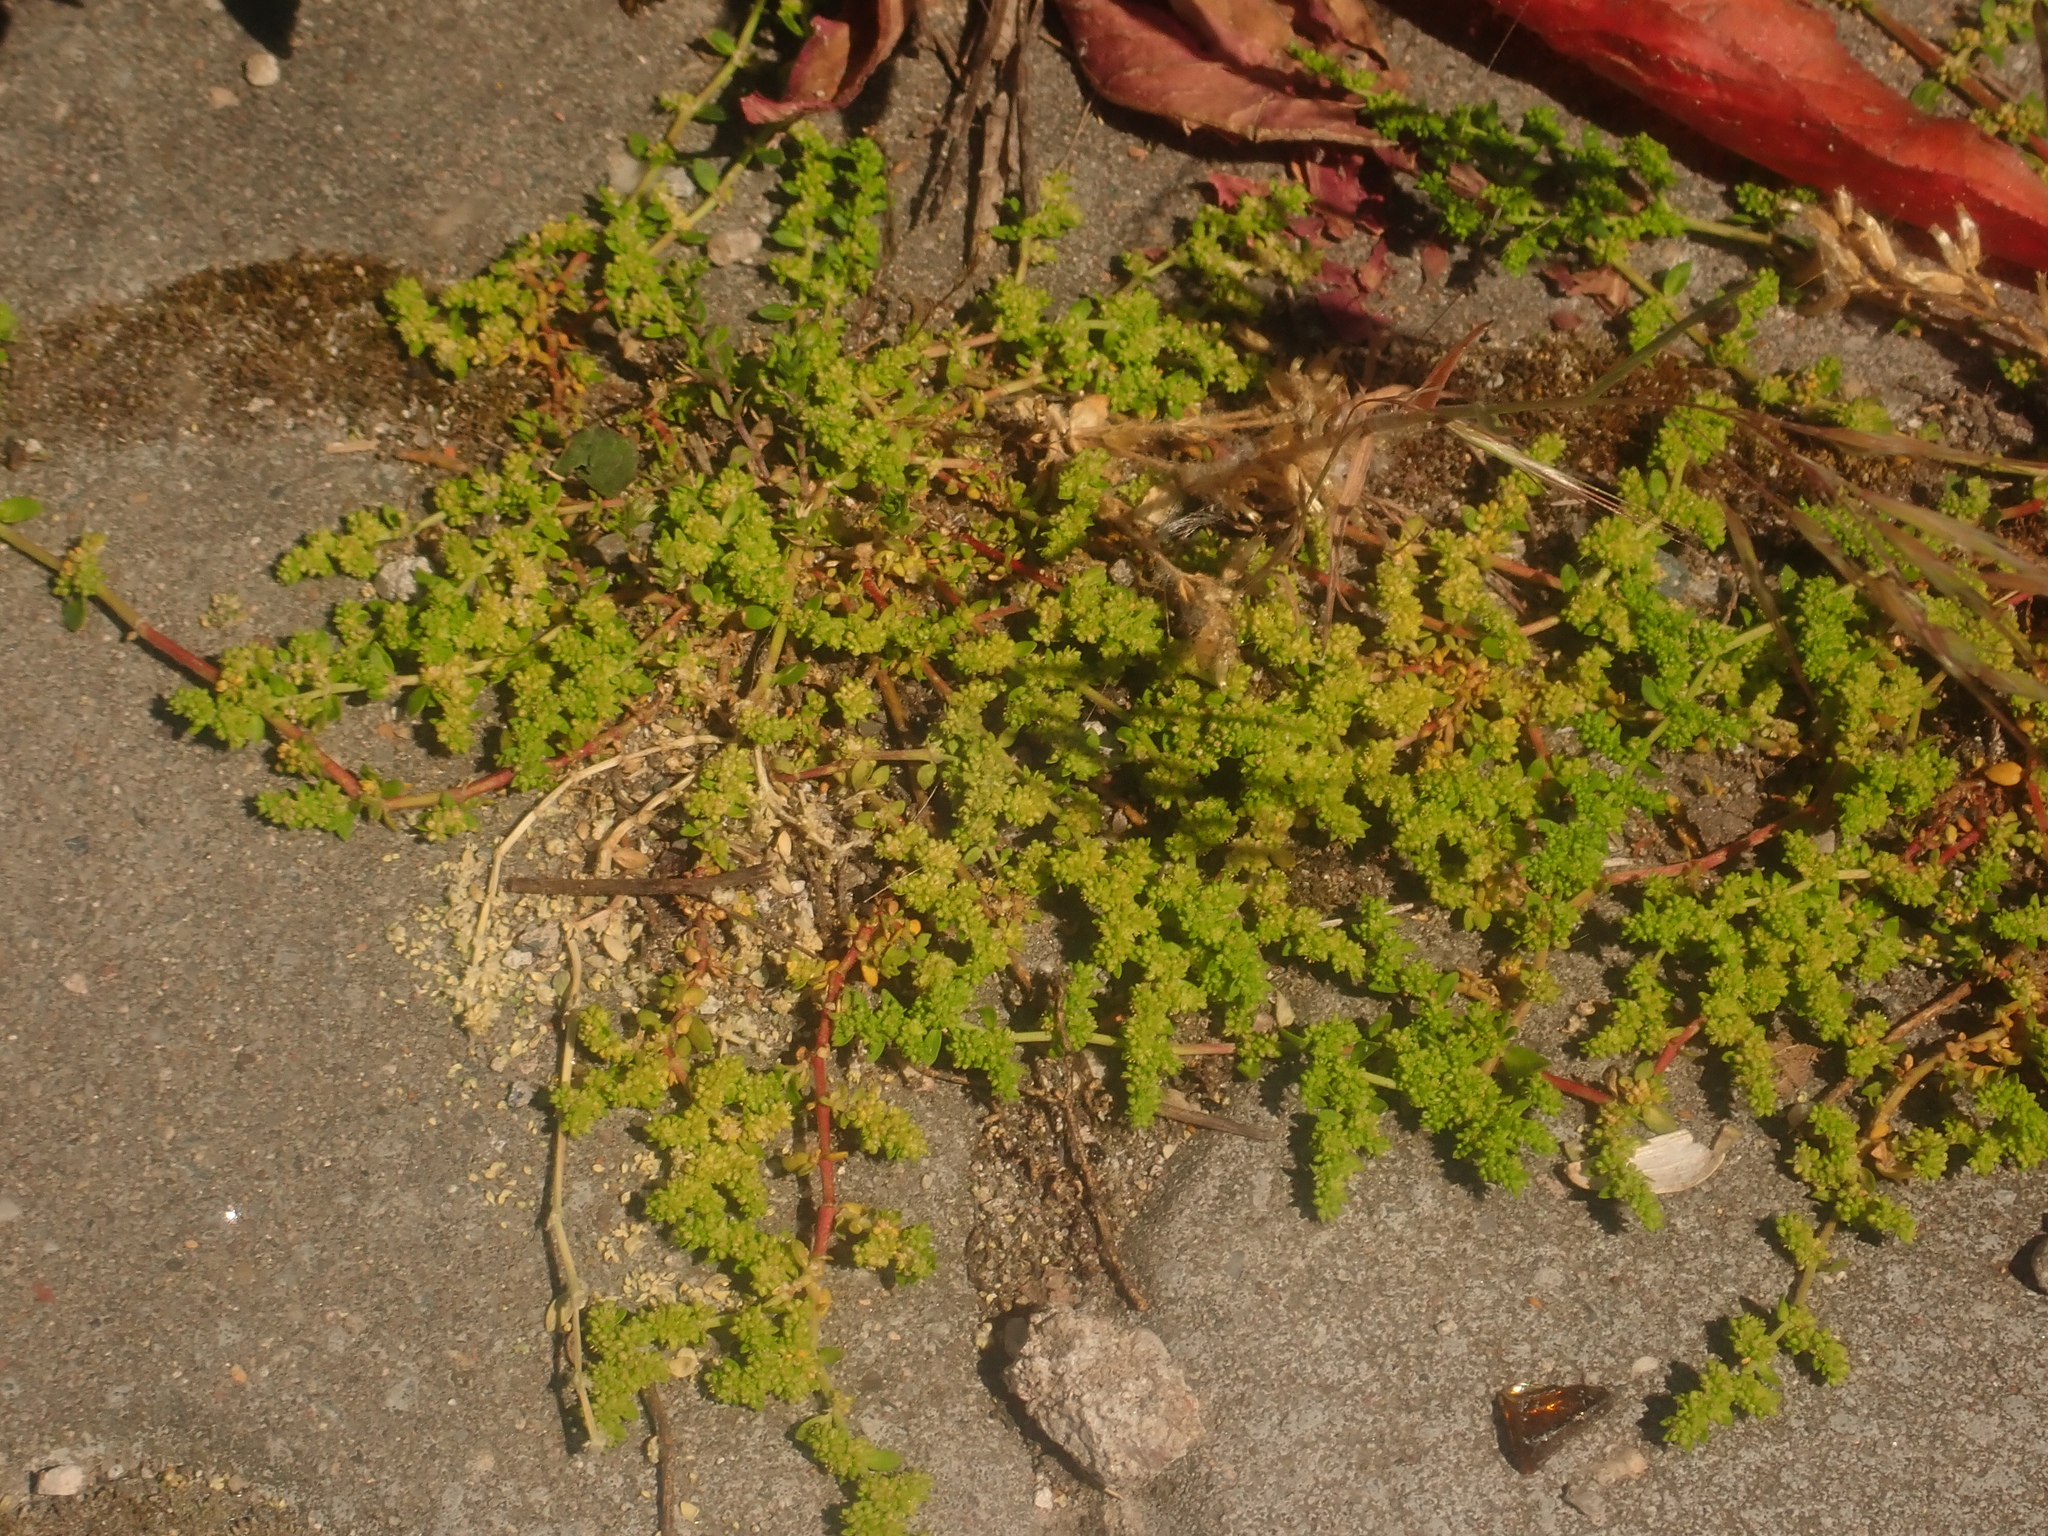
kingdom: Plantae
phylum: Tracheophyta
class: Magnoliopsida
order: Caryophyllales
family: Caryophyllaceae
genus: Herniaria
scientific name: Herniaria glabra
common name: Smooth rupturewort
